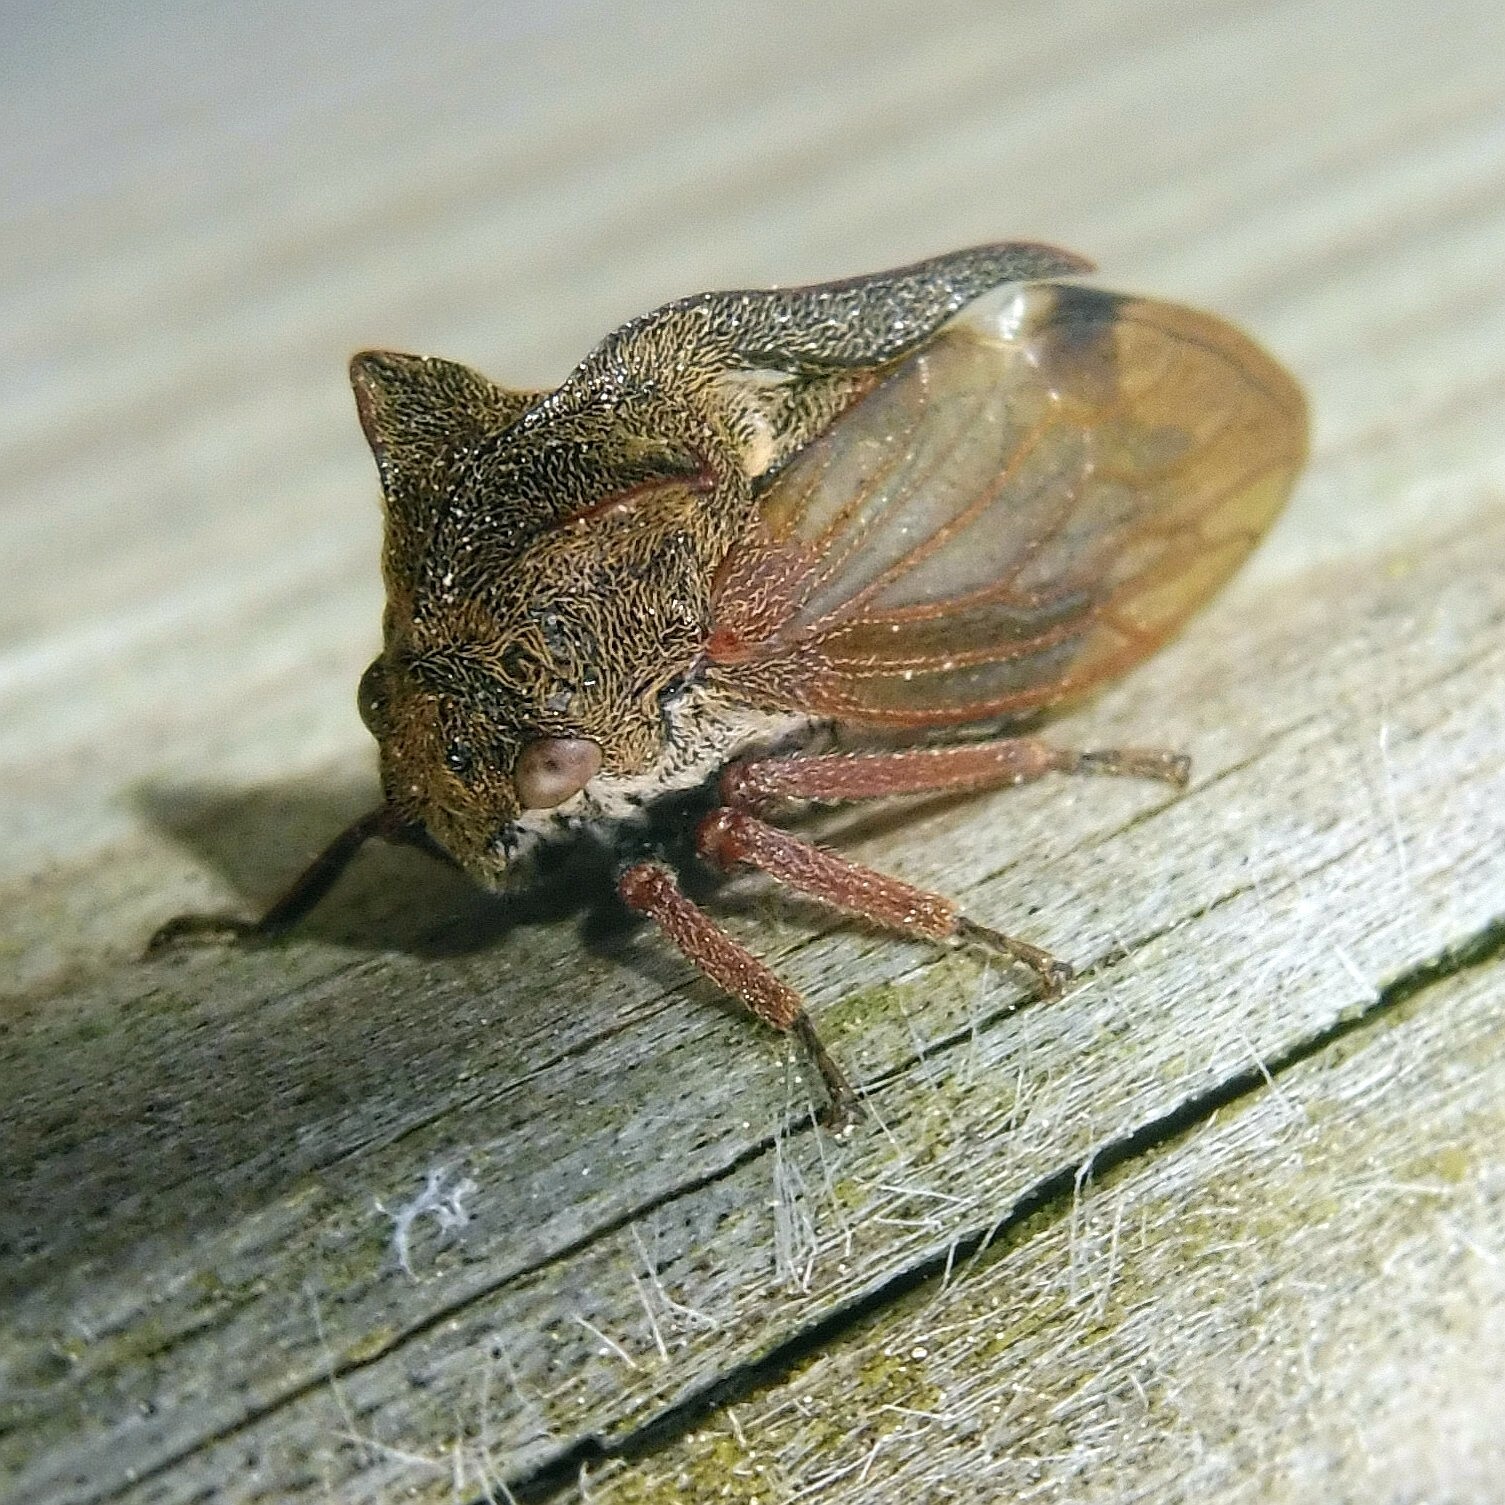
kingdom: Animalia
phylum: Arthropoda
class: Insecta
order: Hemiptera
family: Membracidae
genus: Centrotus
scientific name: Centrotus cornuta
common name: Treehopper
